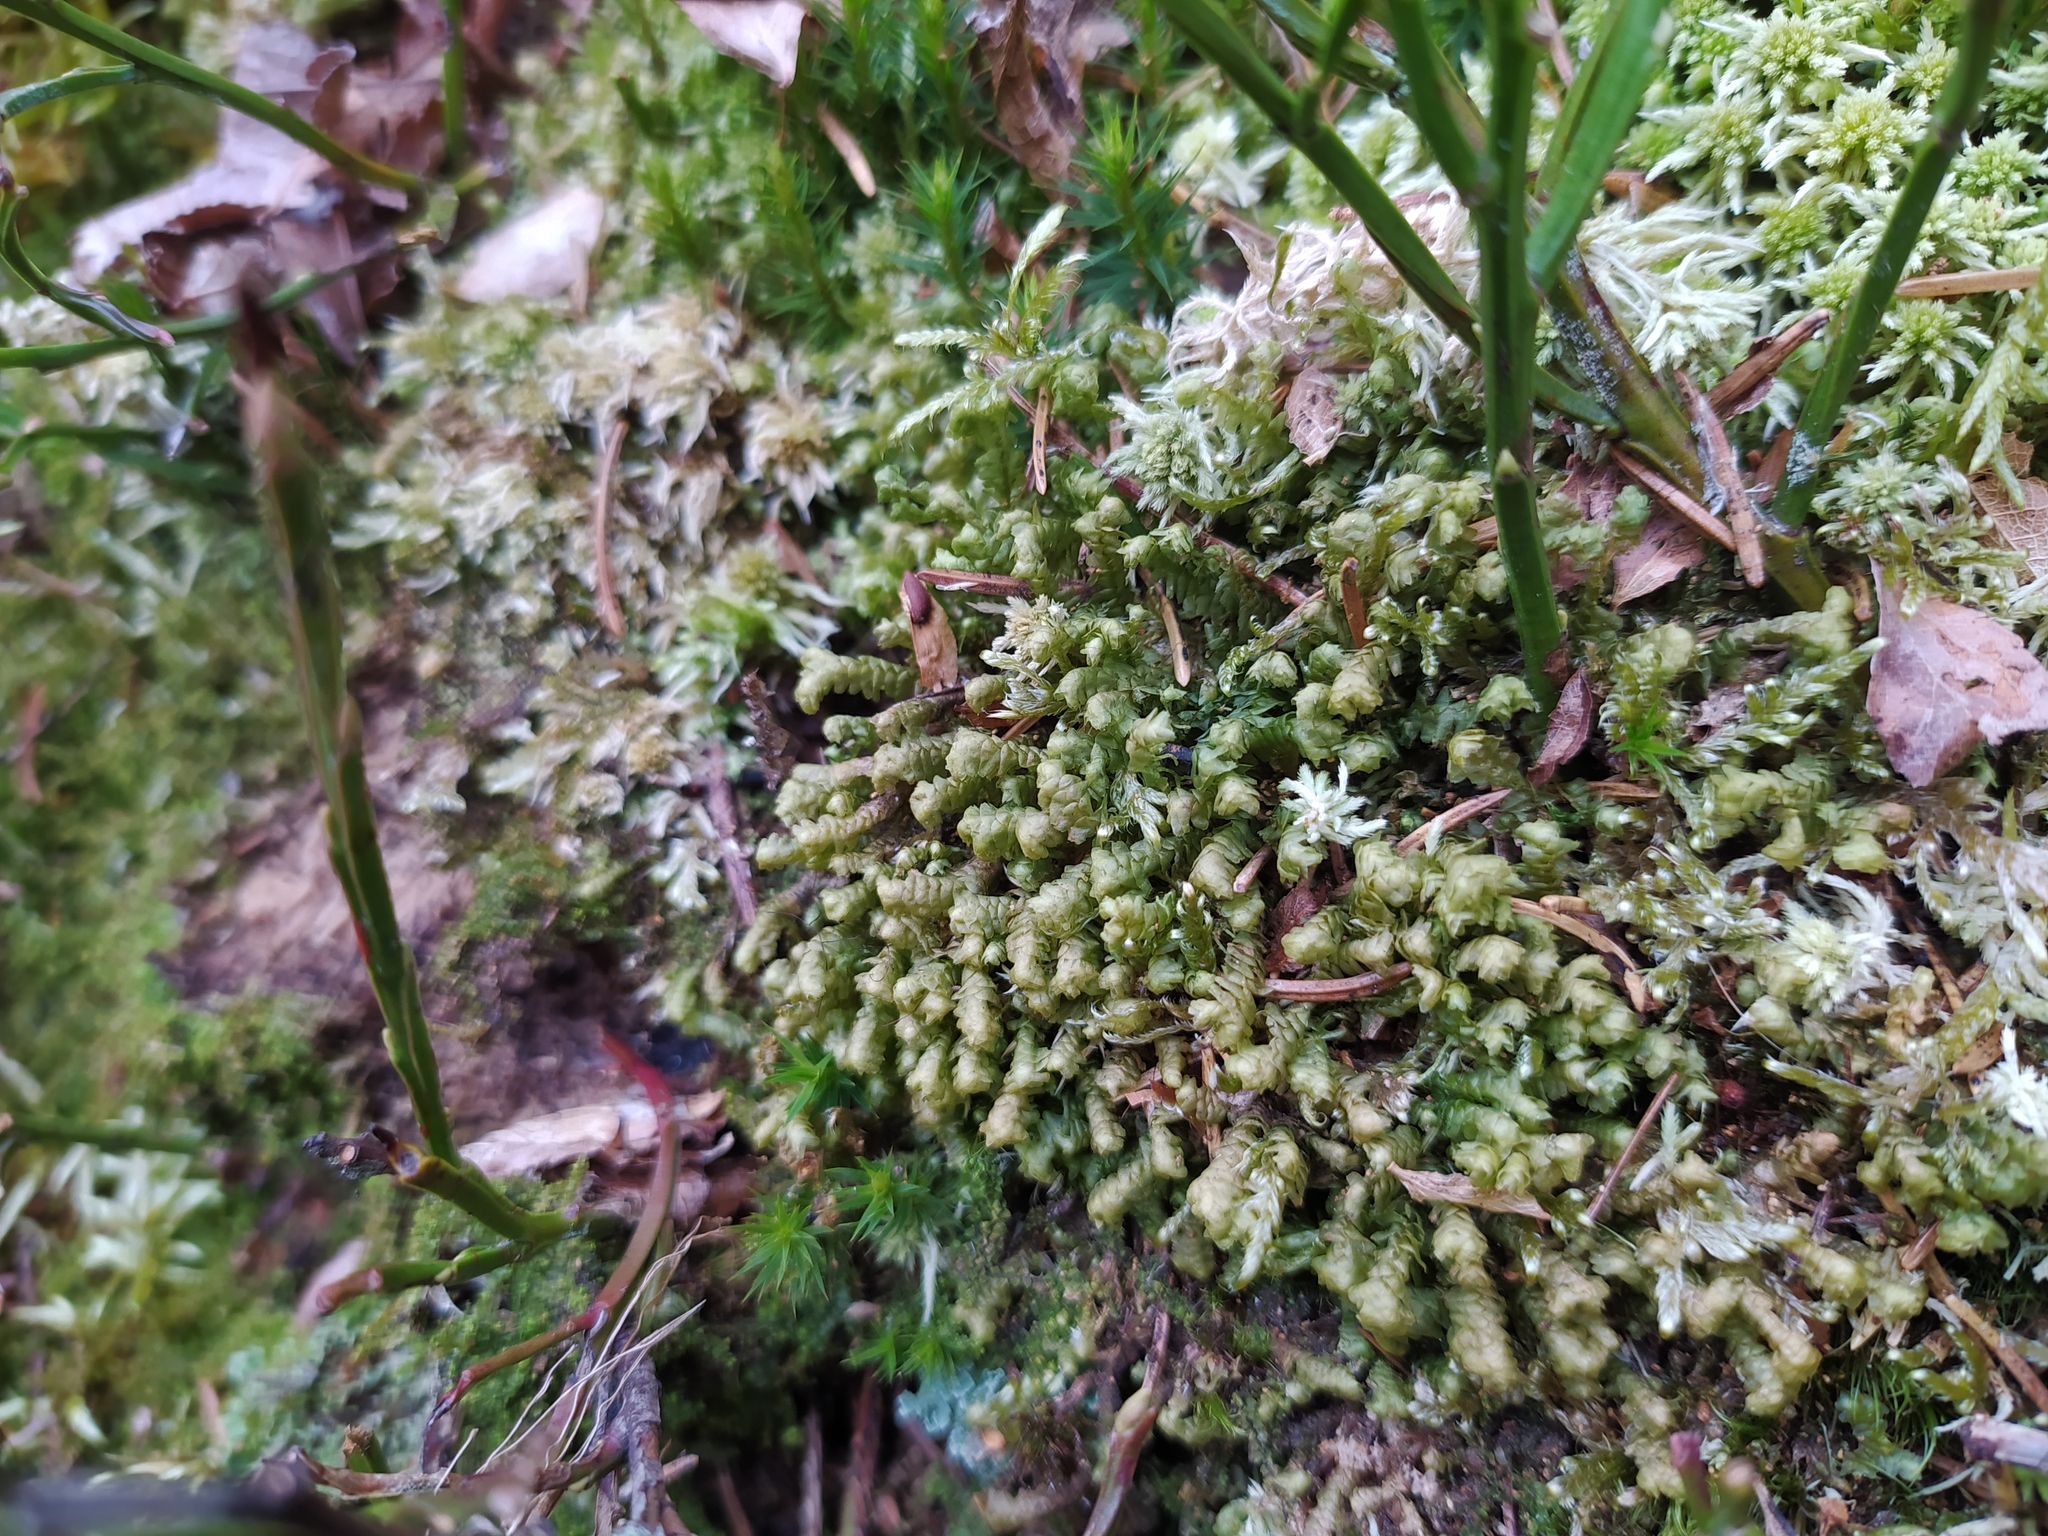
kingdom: Plantae
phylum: Marchantiophyta
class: Jungermanniopsida
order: Jungermanniales
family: Lepidoziaceae
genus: Bazzania
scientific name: Bazzania trilobata
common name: Three-lobed whipwort
